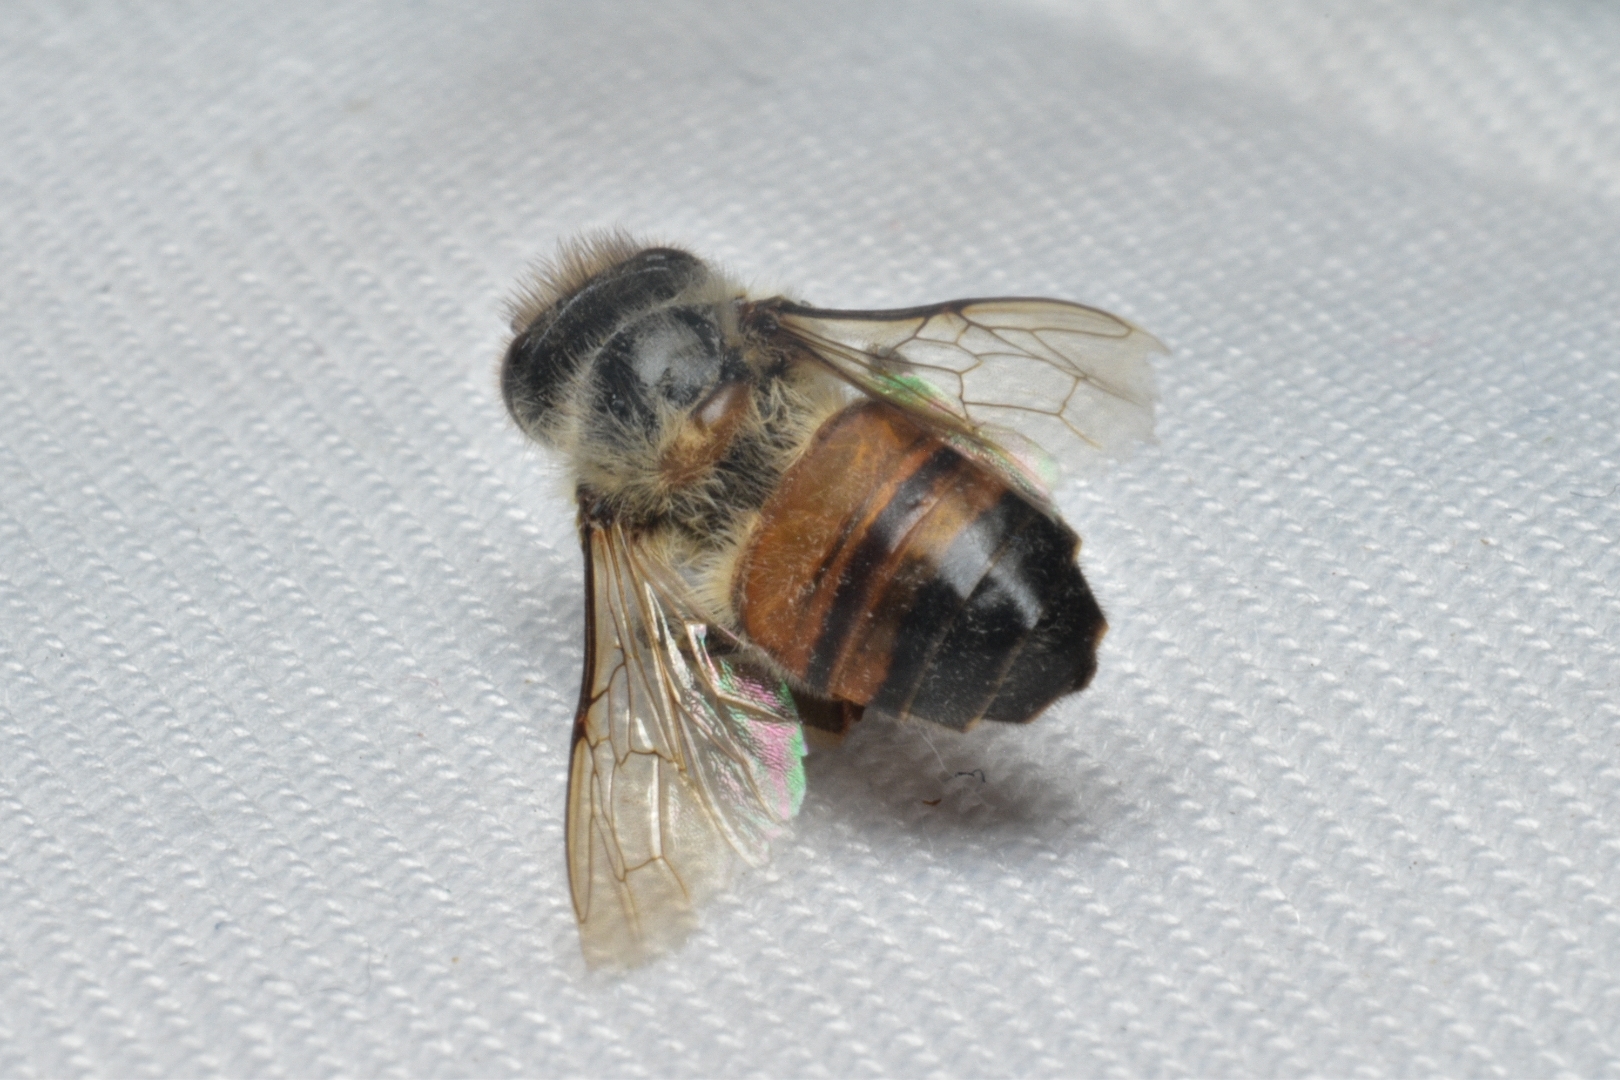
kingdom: Animalia
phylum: Arthropoda
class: Insecta
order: Hymenoptera
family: Apidae
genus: Apis
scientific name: Apis mellifera
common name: Honey bee
